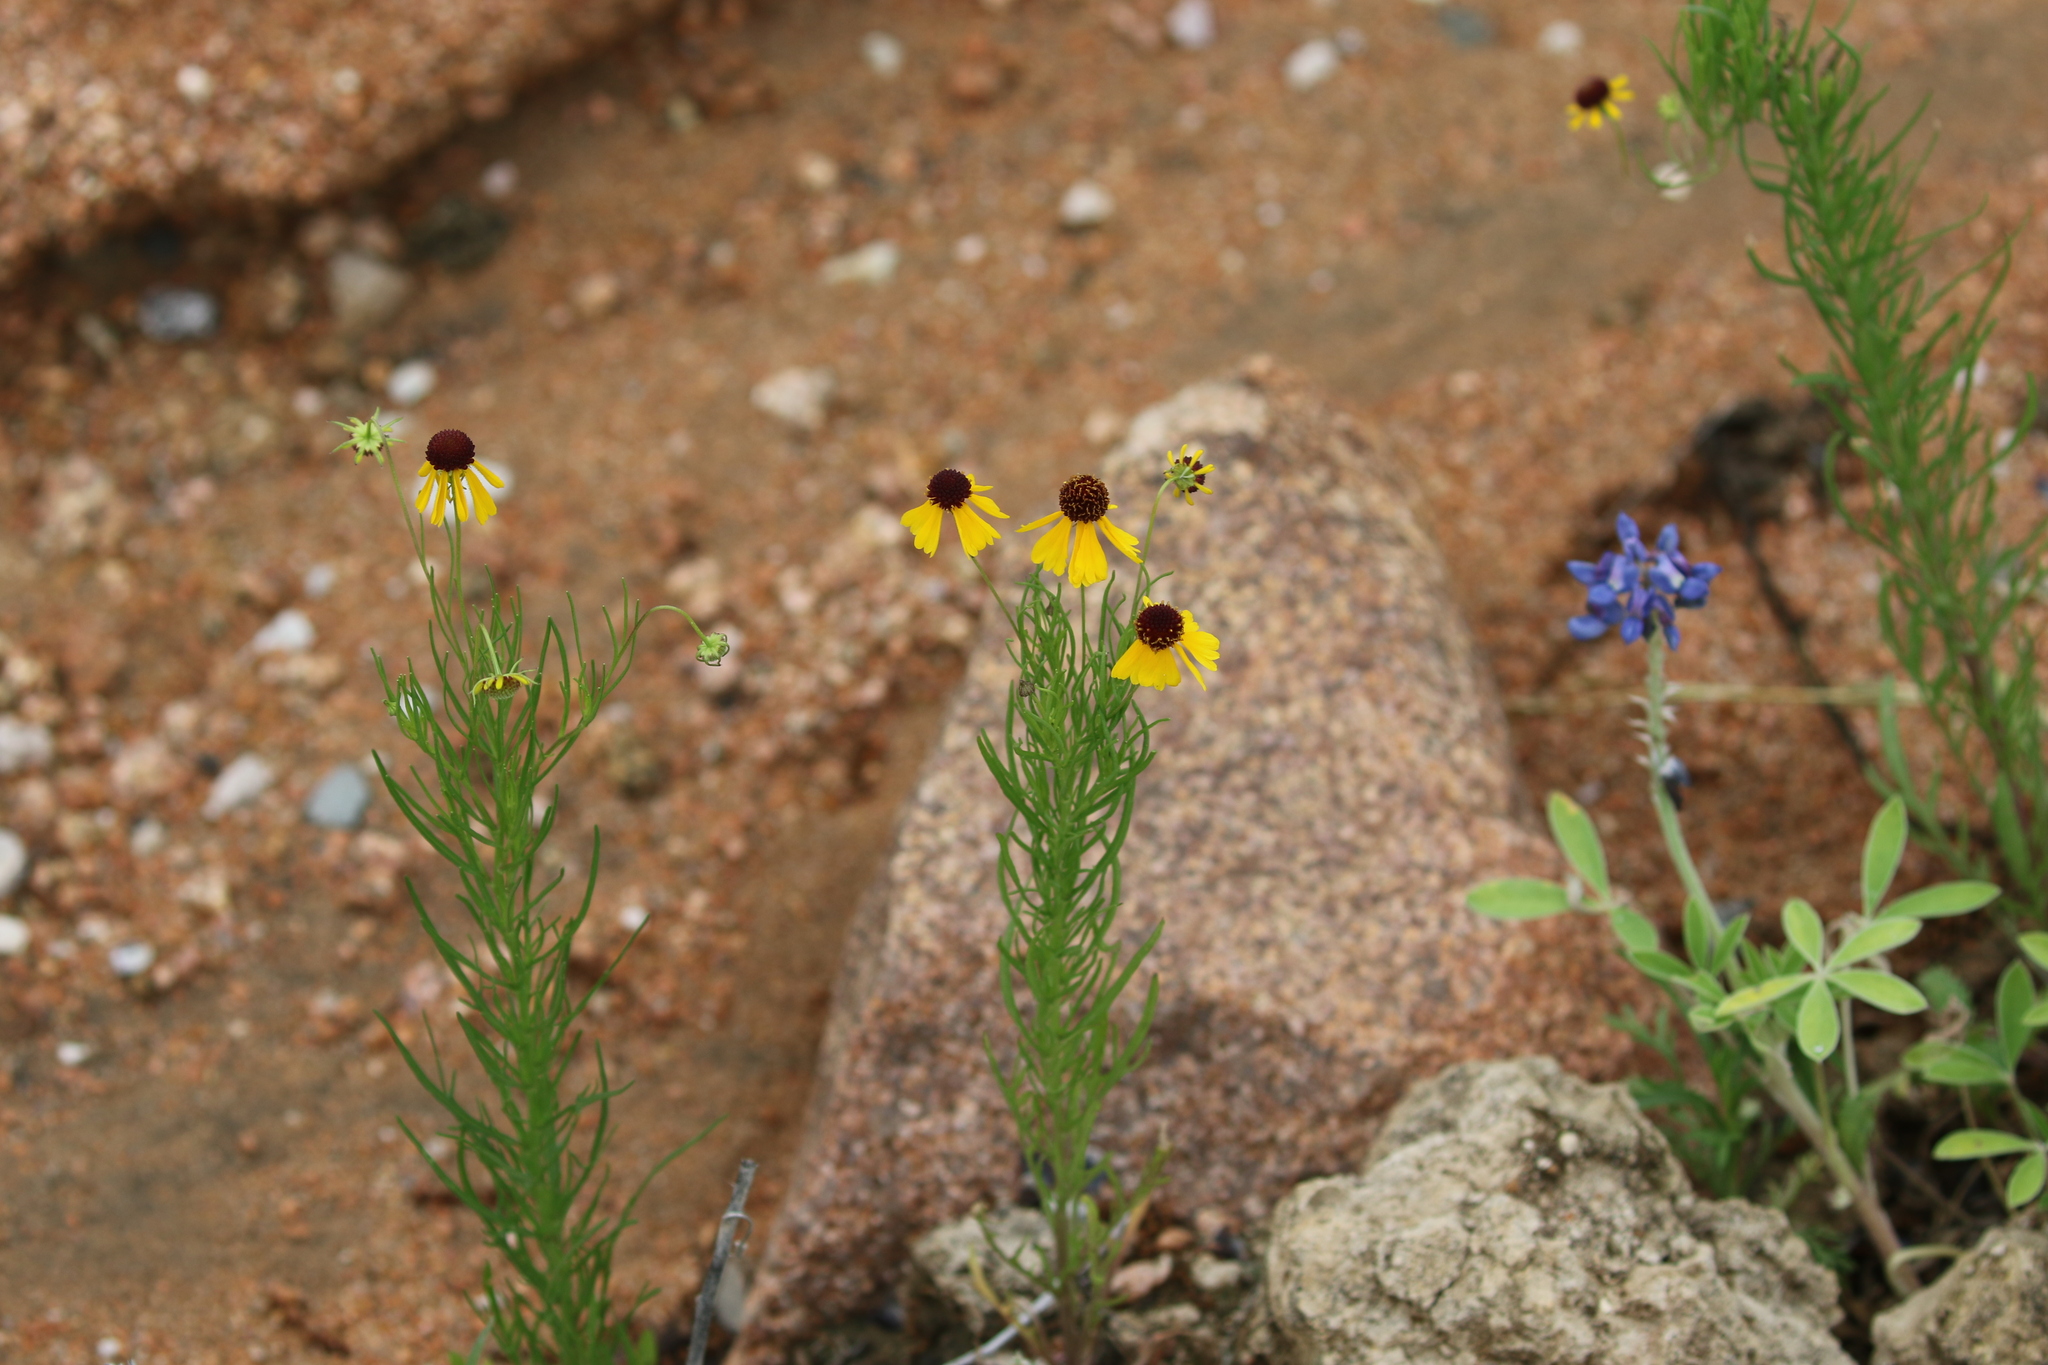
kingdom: Plantae
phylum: Tracheophyta
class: Magnoliopsida
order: Asterales
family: Asteraceae
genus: Helenium
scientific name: Helenium amarum
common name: Bitter sneezeweed
